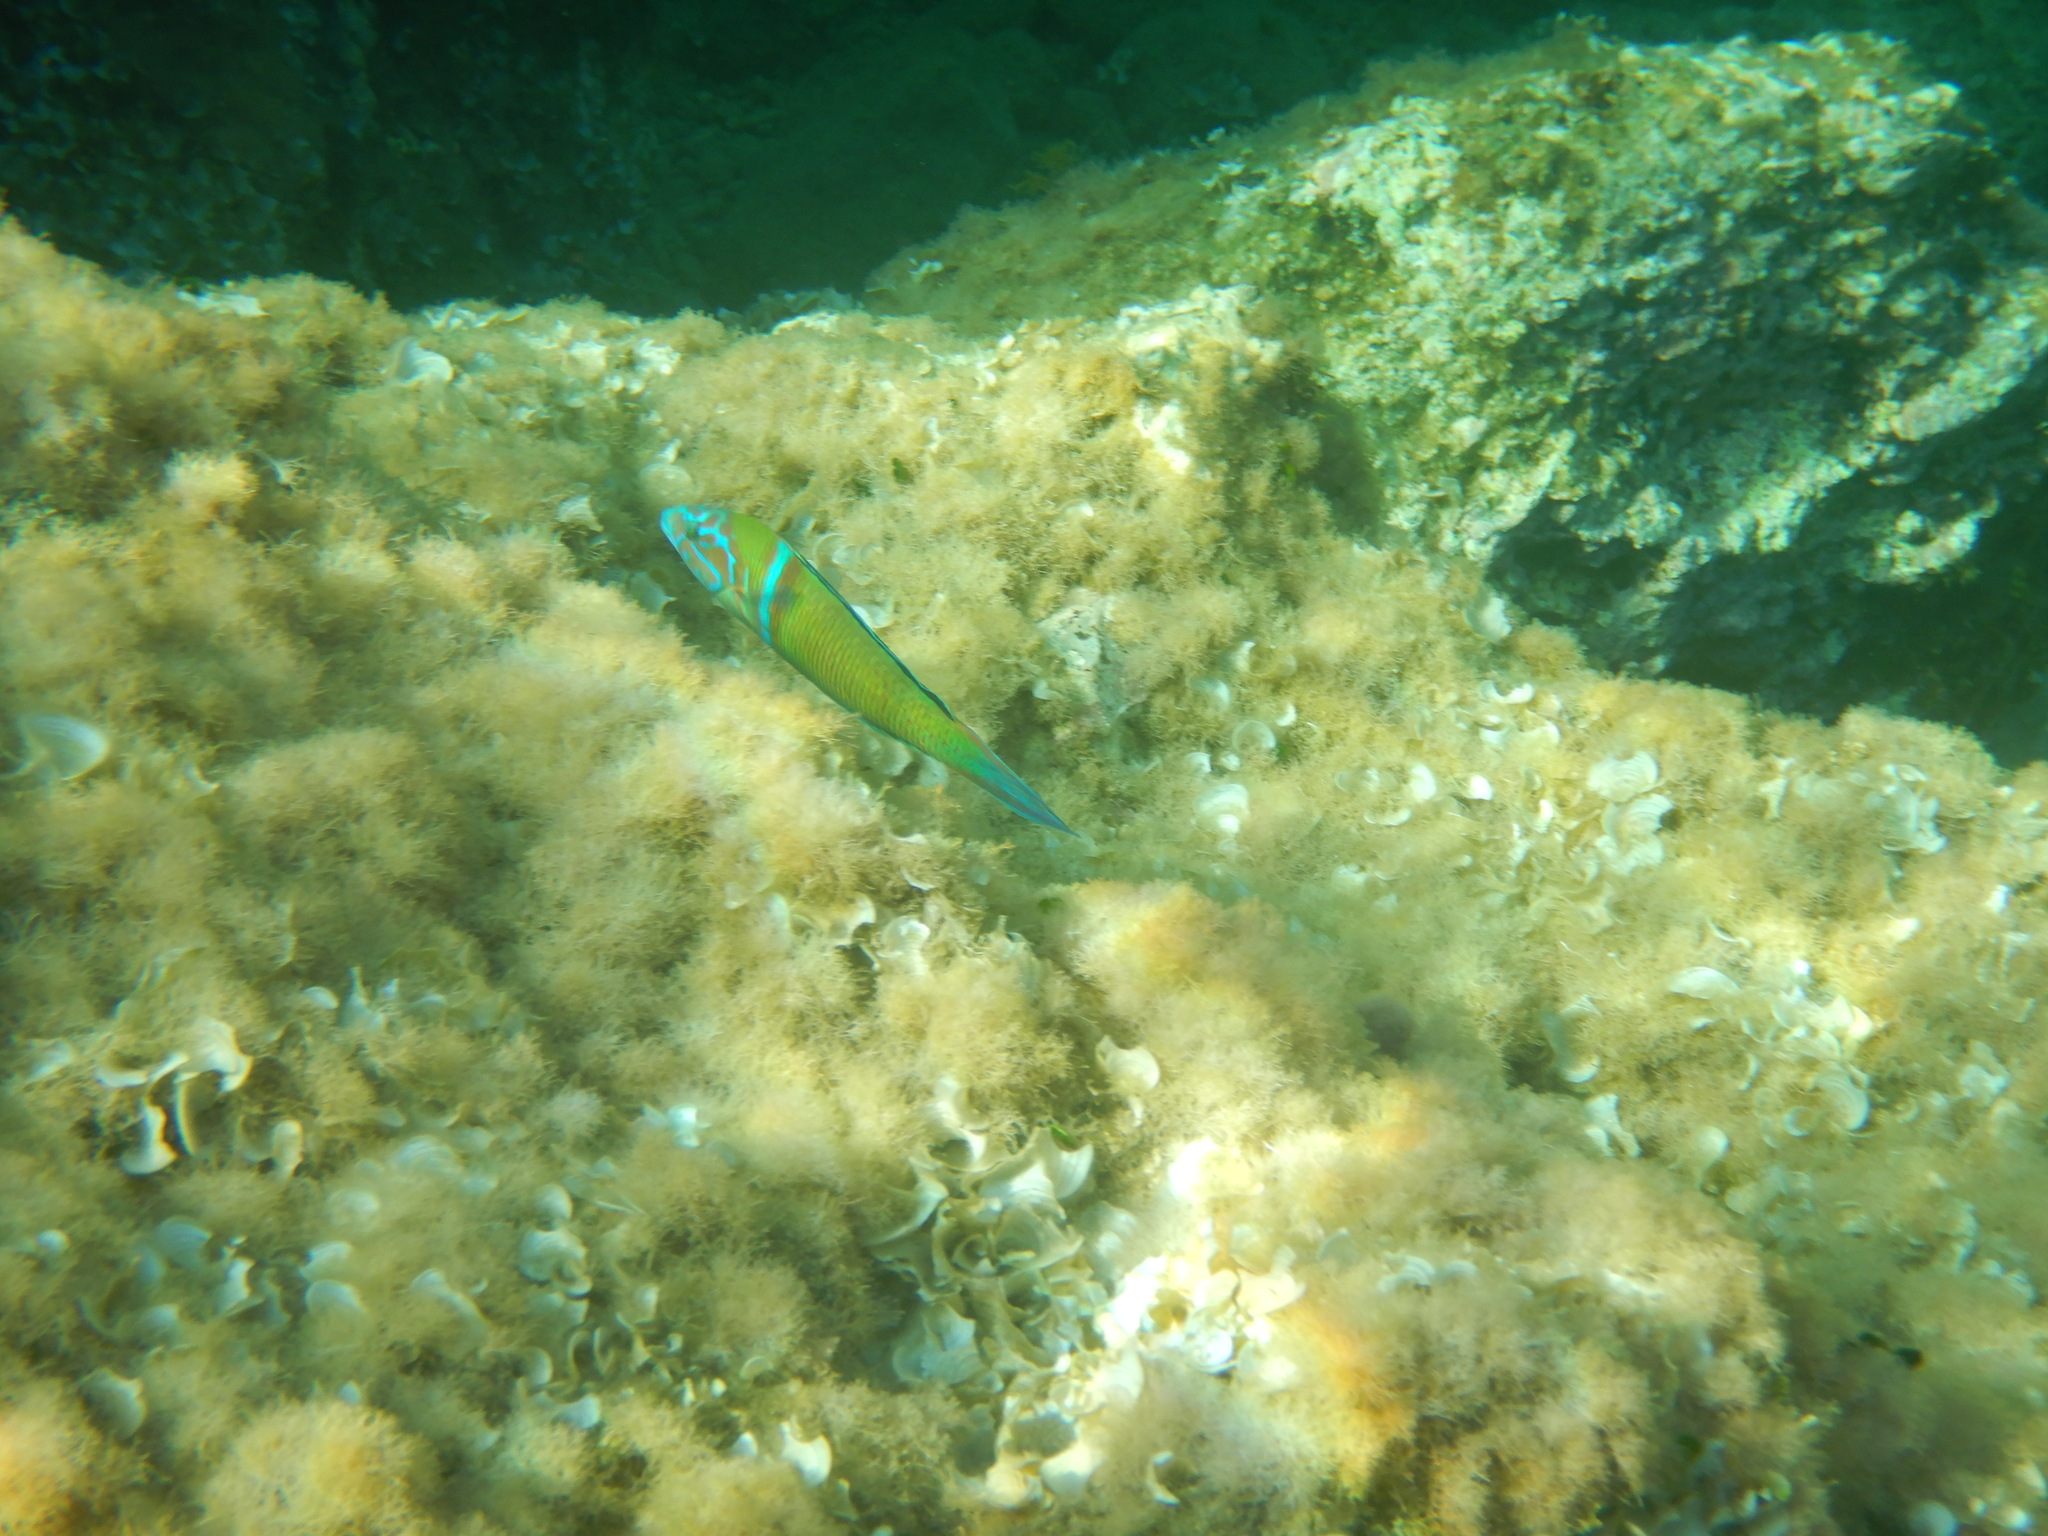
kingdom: Animalia
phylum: Chordata
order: Perciformes
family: Labridae
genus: Thalassoma
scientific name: Thalassoma pavo
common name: Ornate wrasse
